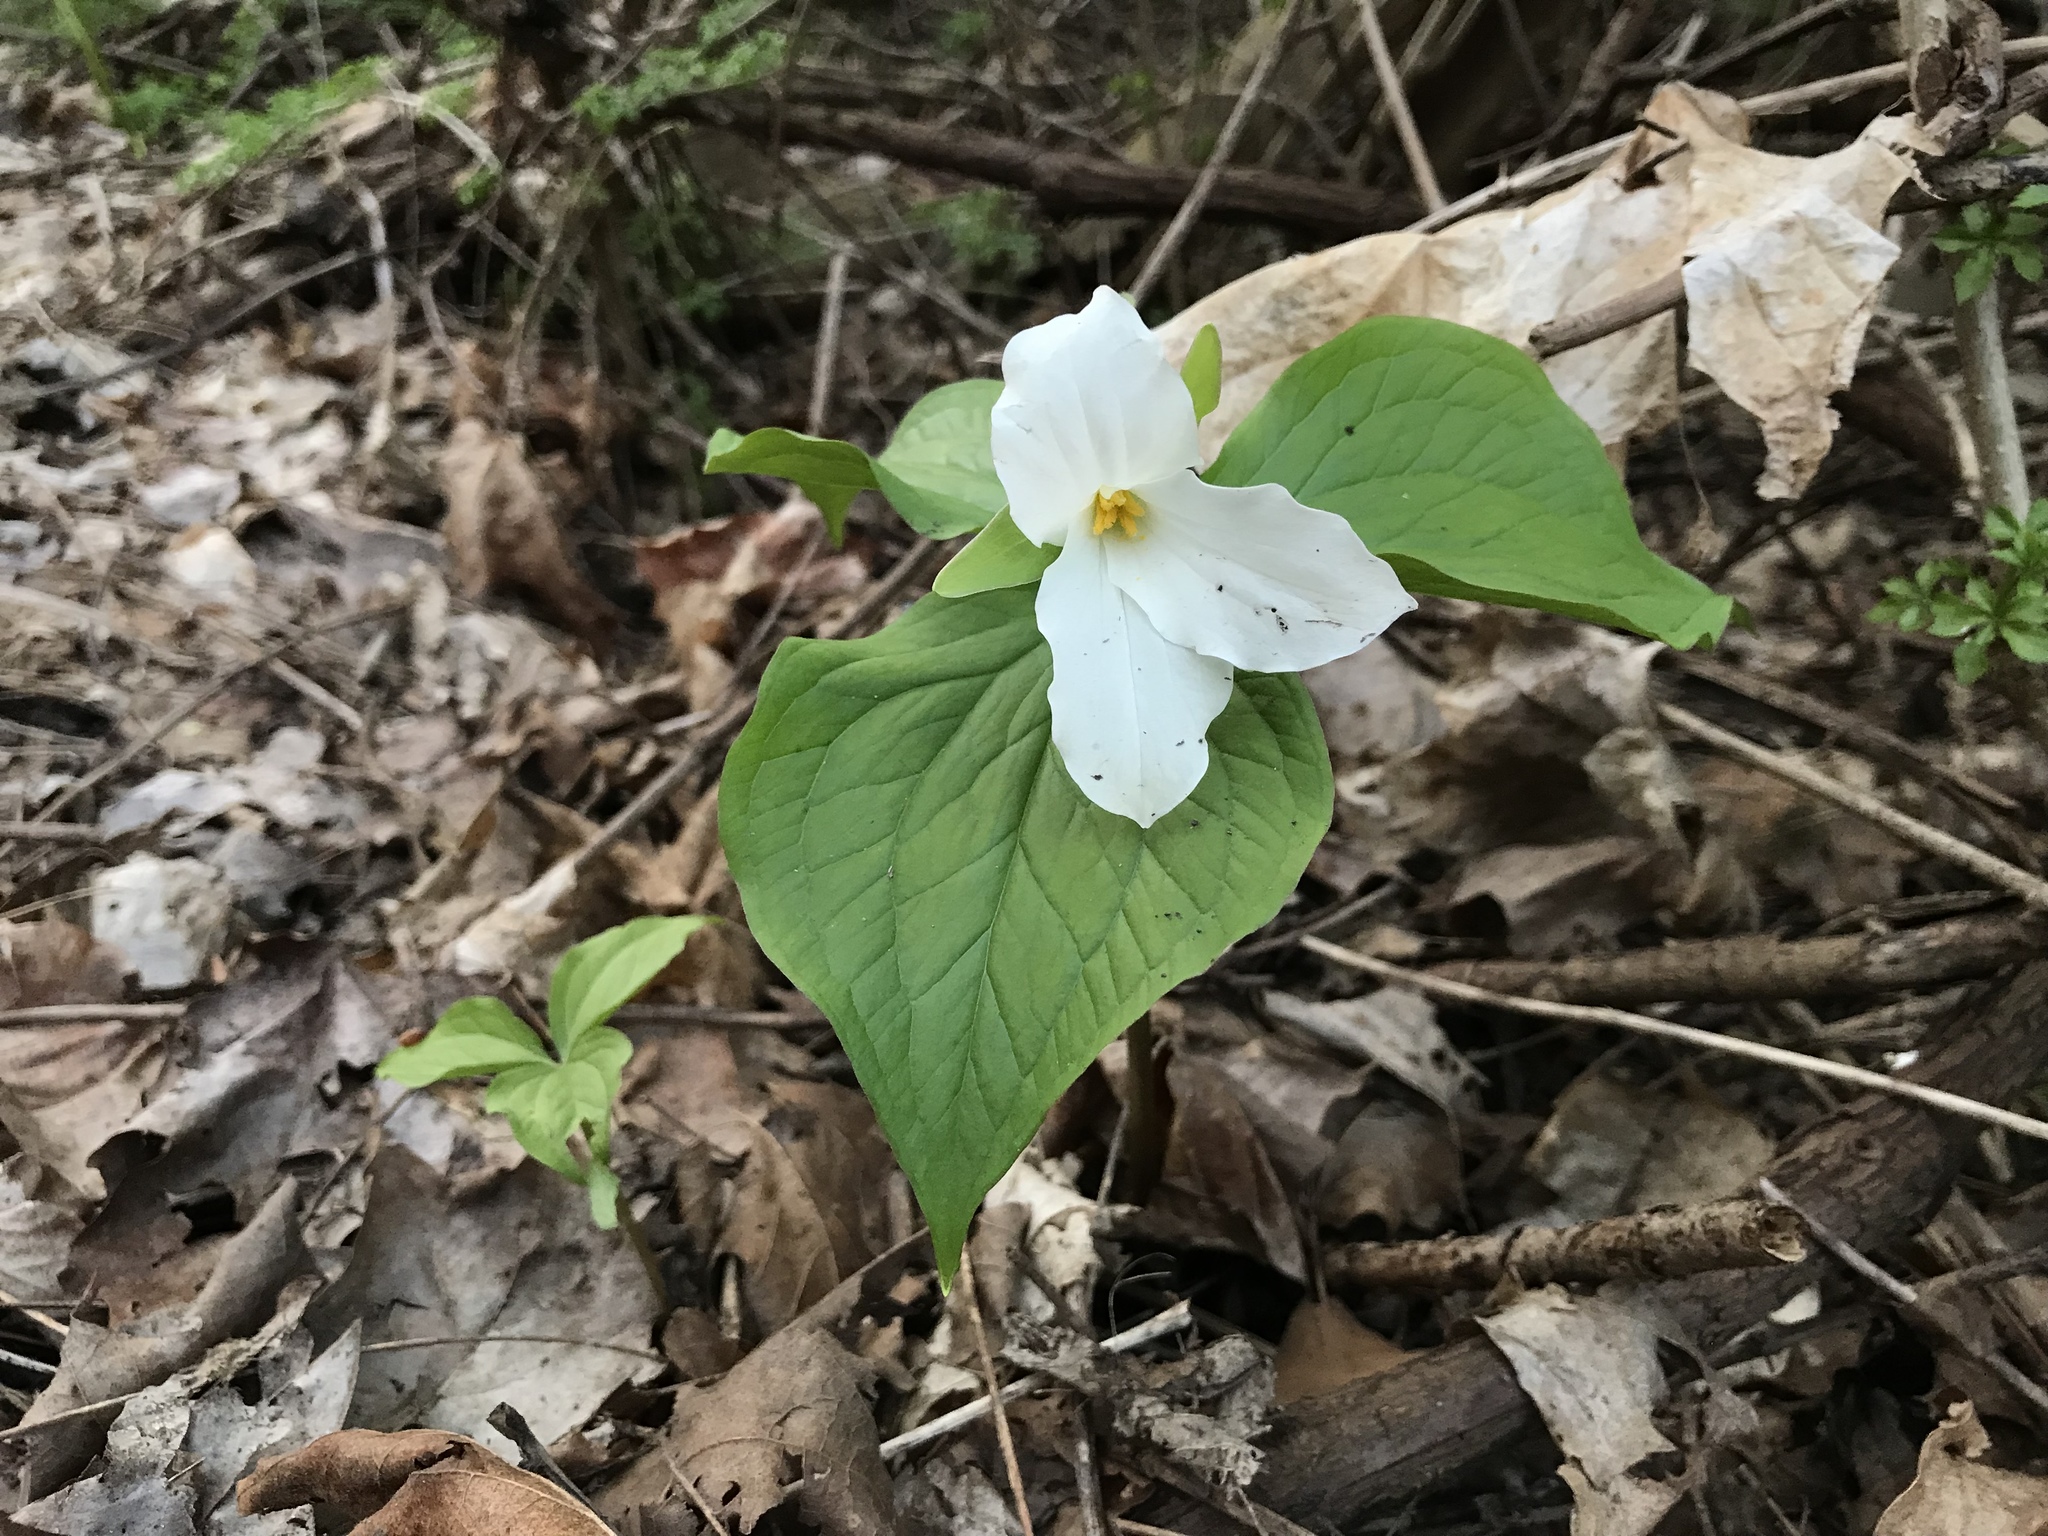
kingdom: Plantae
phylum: Tracheophyta
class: Liliopsida
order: Liliales
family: Melanthiaceae
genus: Trillium
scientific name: Trillium grandiflorum
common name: Great white trillium
